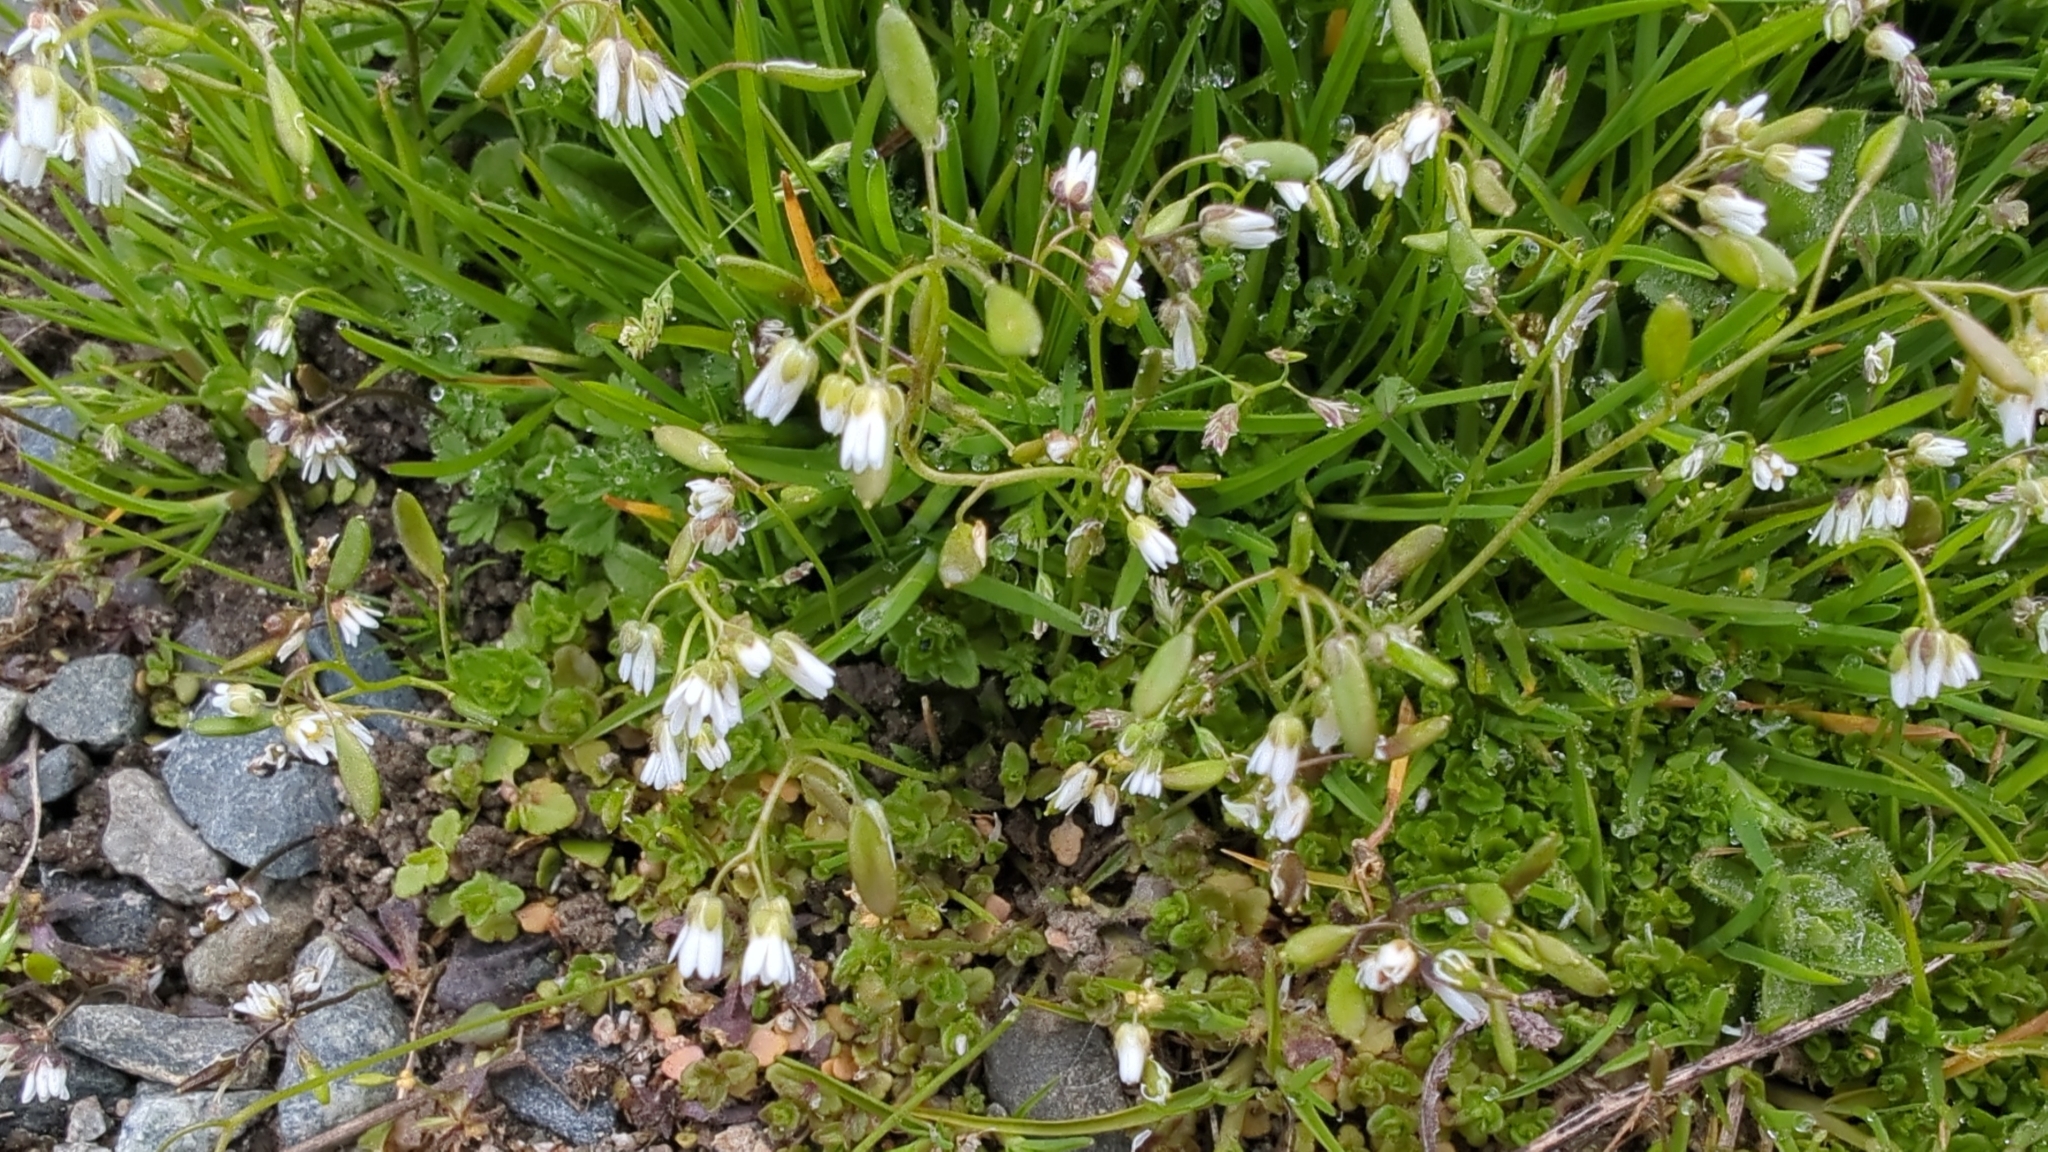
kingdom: Plantae
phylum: Tracheophyta
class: Magnoliopsida
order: Brassicales
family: Brassicaceae
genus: Draba
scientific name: Draba verna
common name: Spring draba
